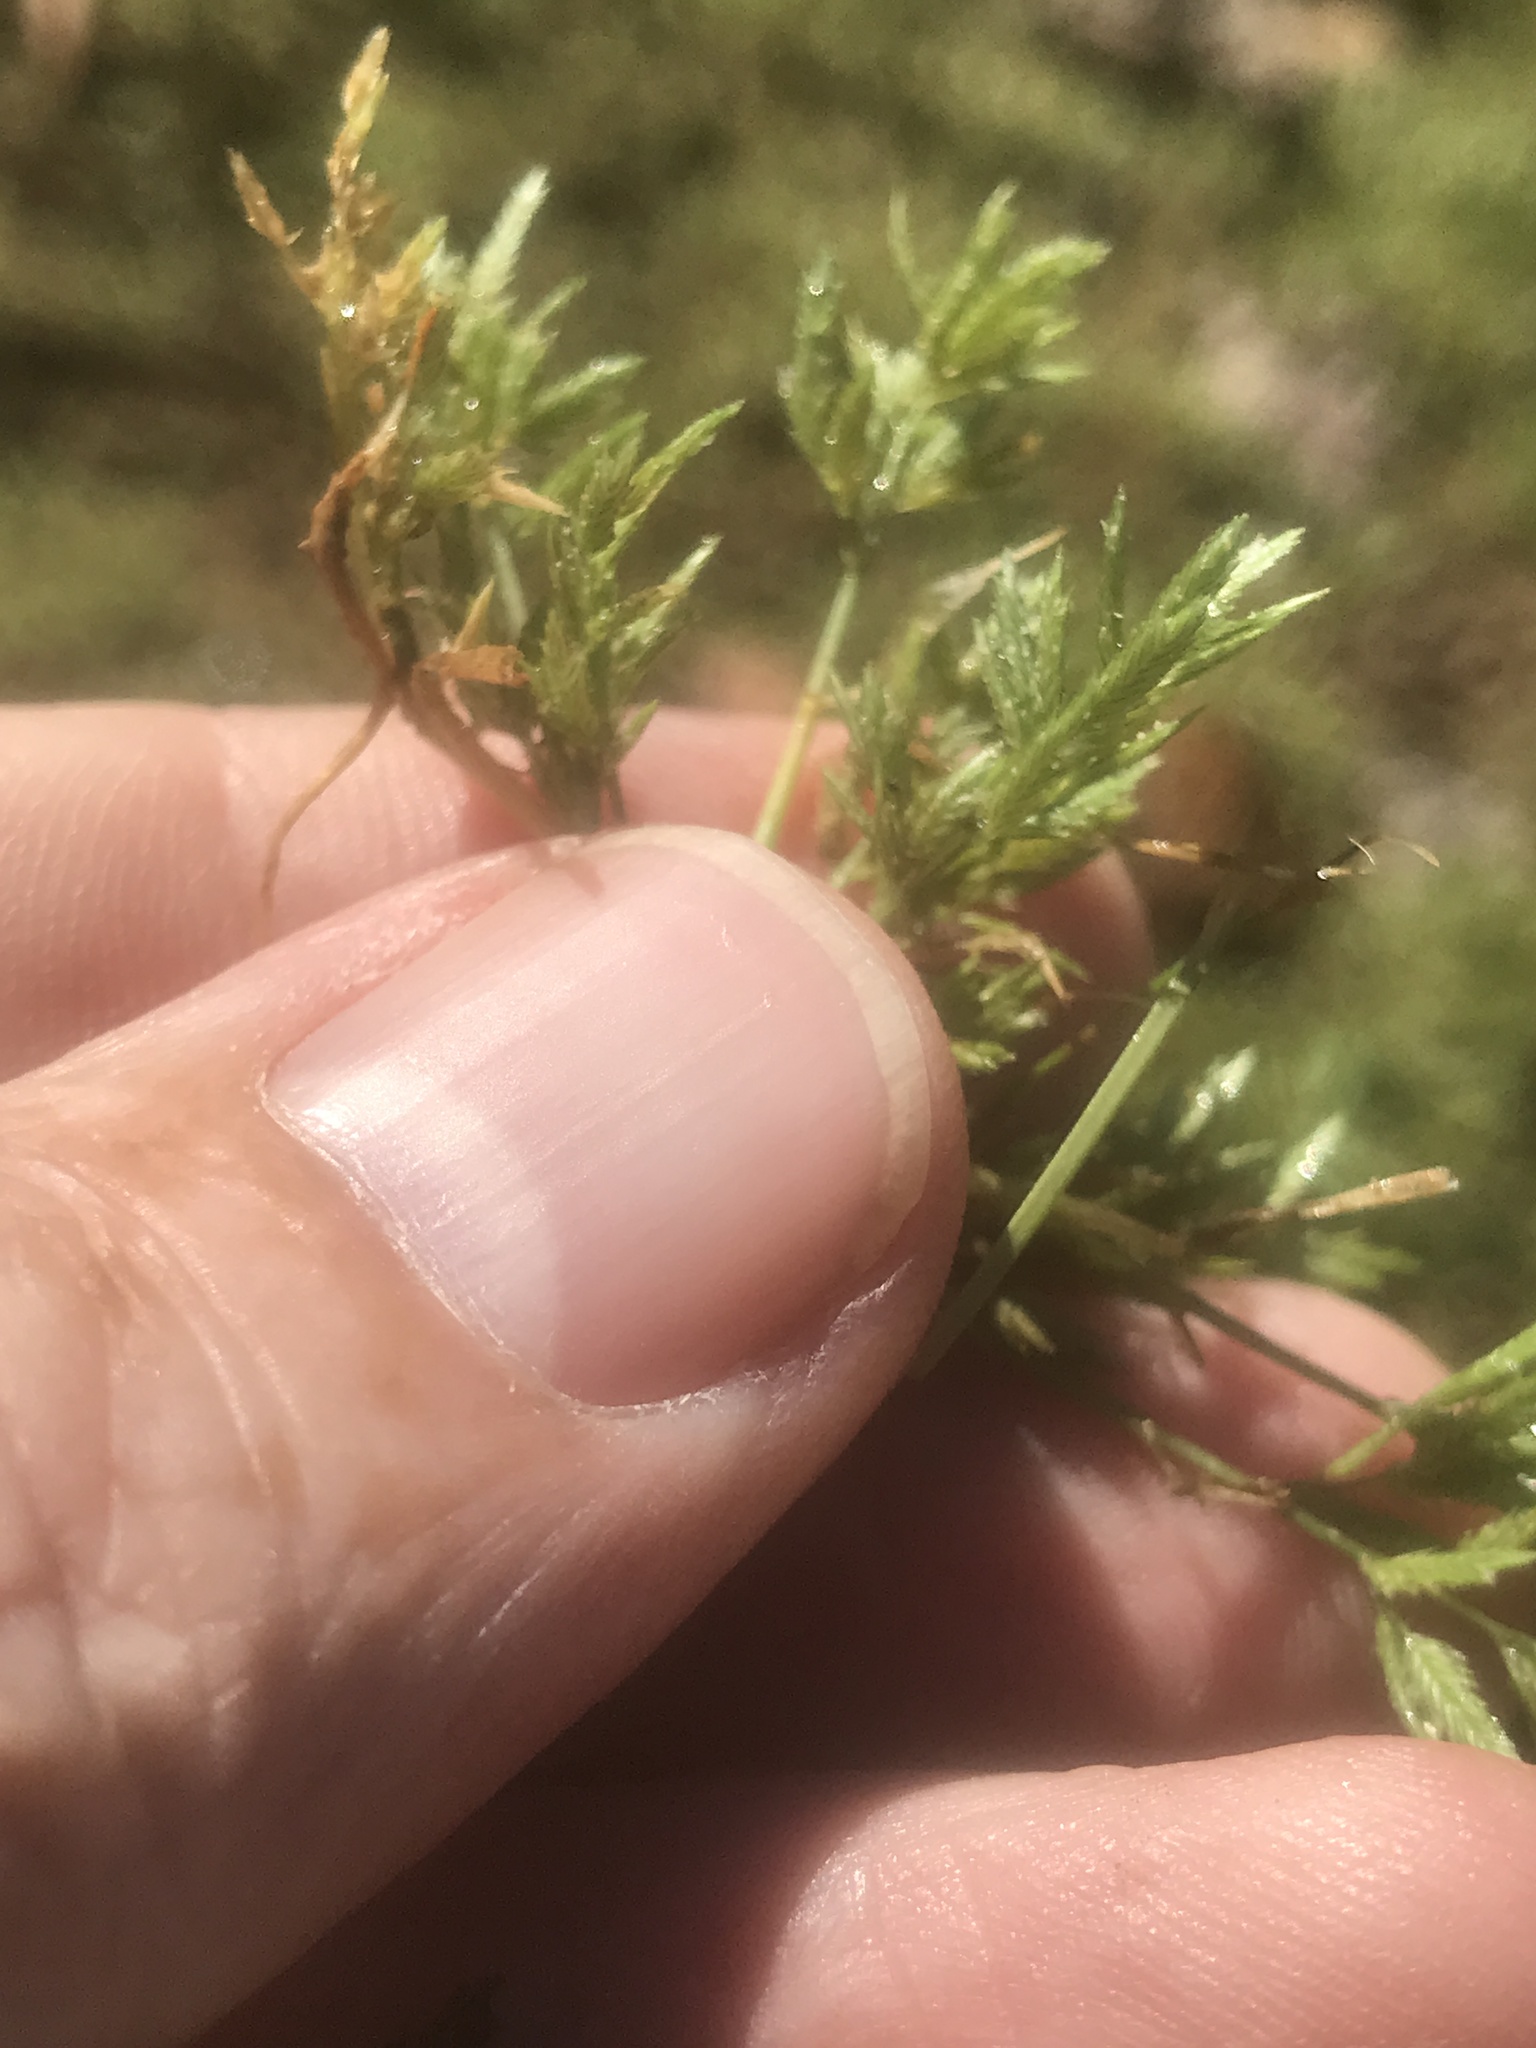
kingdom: Plantae
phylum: Tracheophyta
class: Liliopsida
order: Poales
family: Poaceae
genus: Eragrostis
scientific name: Eragrostis hypnoides
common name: Creeping love grass
